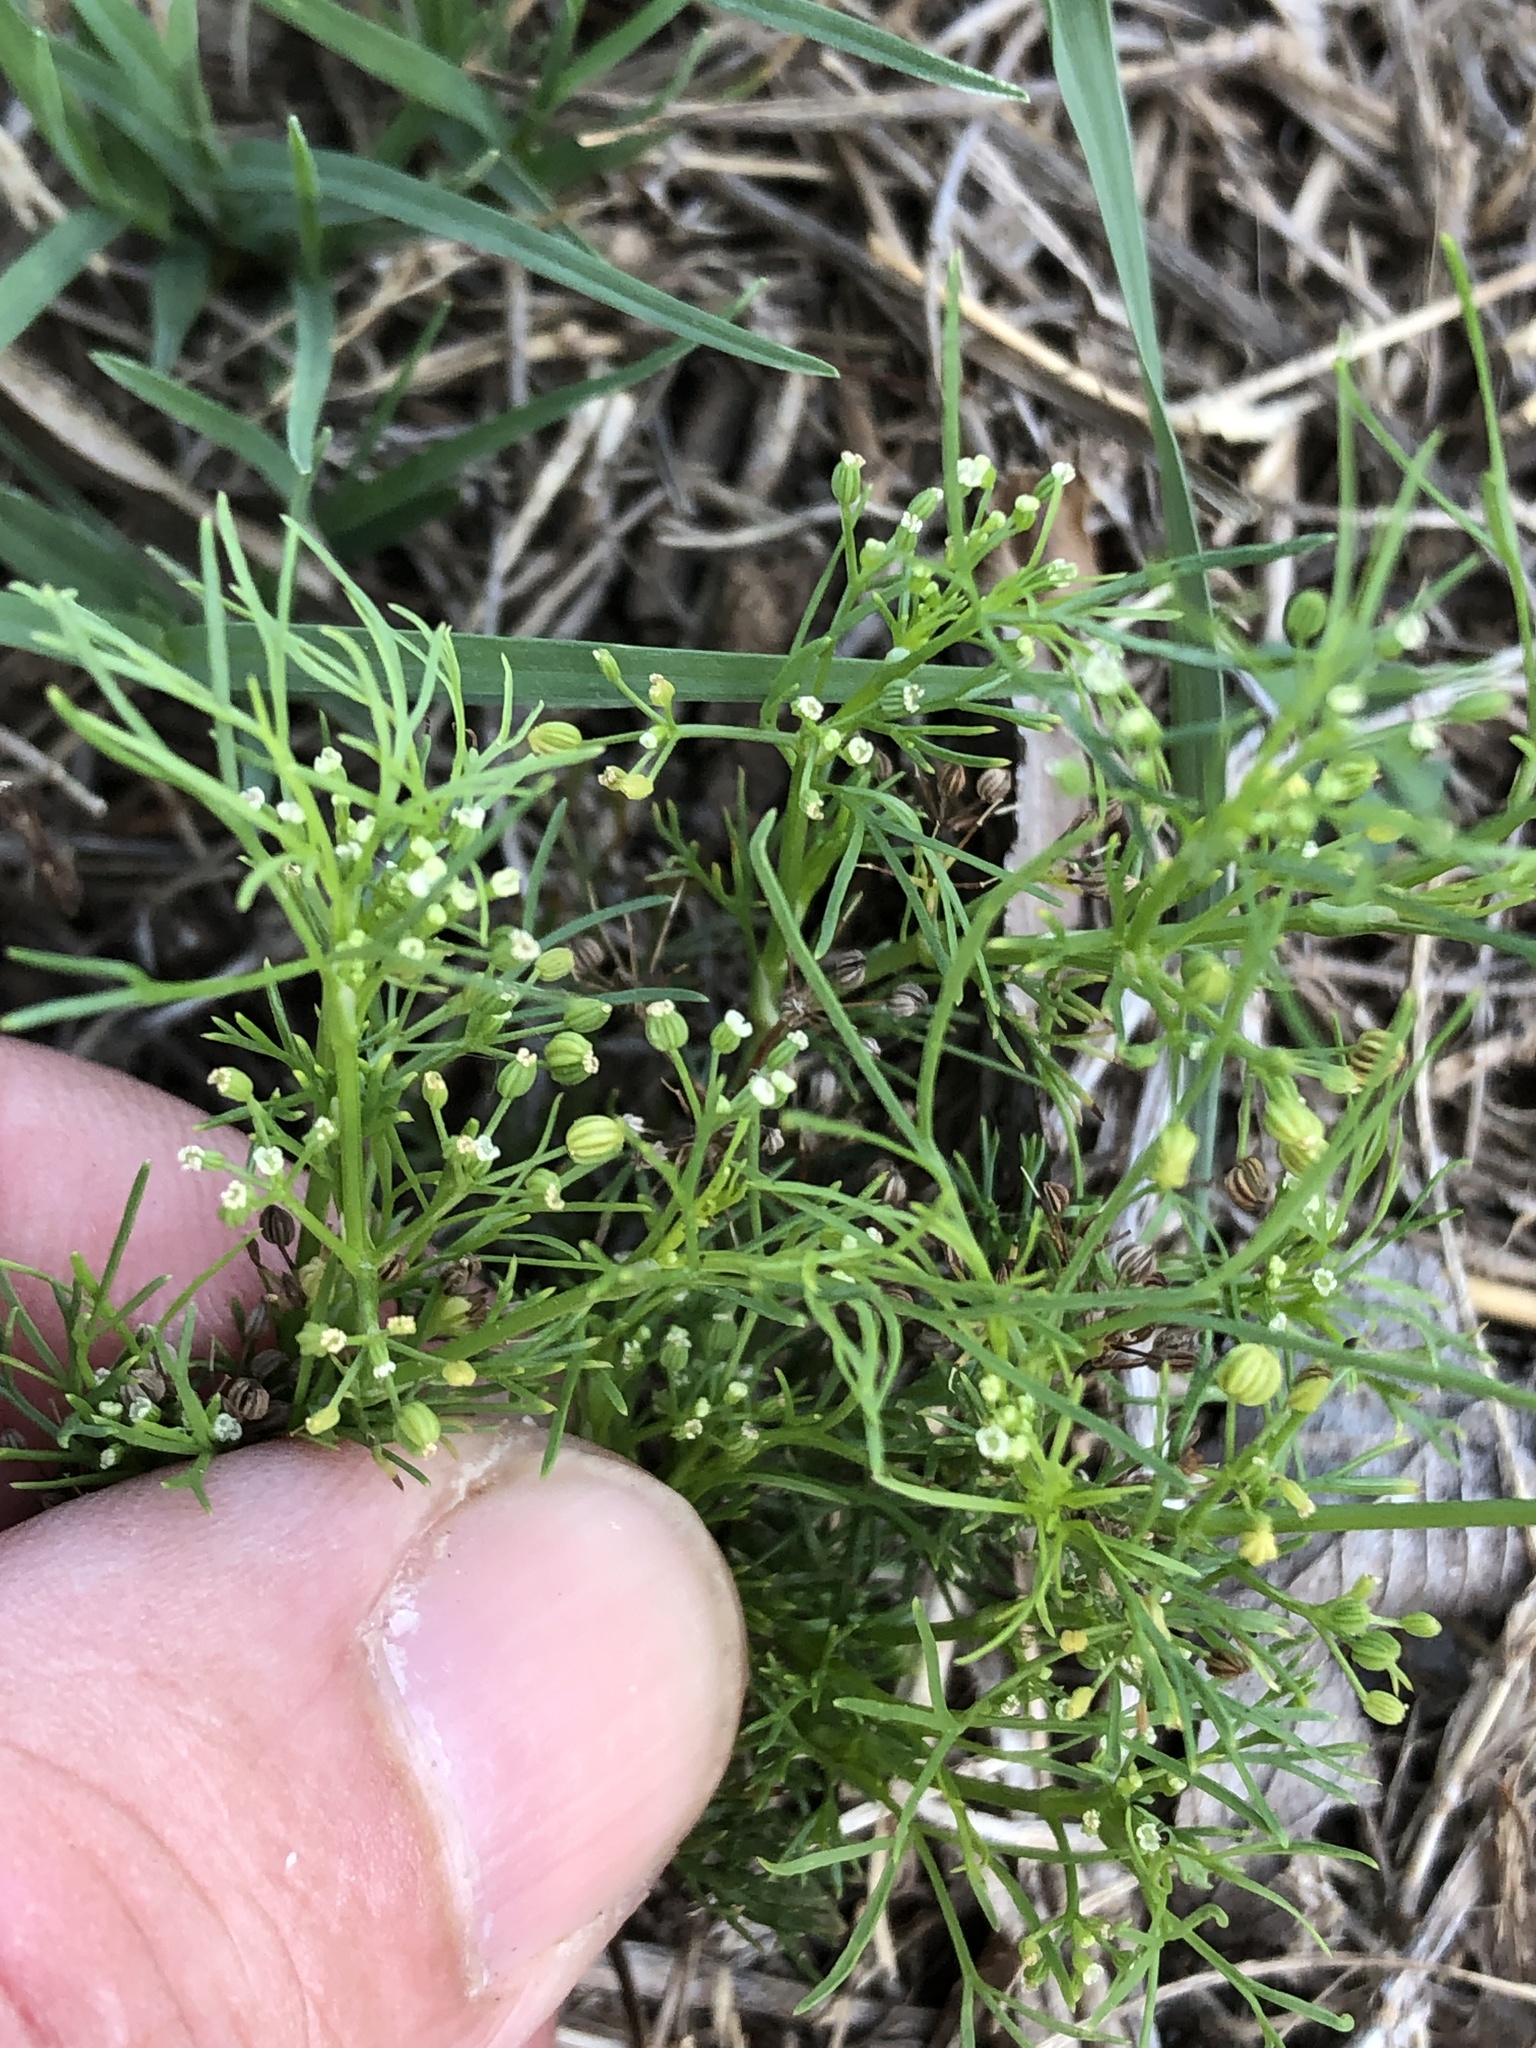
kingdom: Plantae
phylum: Tracheophyta
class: Magnoliopsida
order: Apiales
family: Apiaceae
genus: Cyclospermum
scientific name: Cyclospermum leptophyllum
